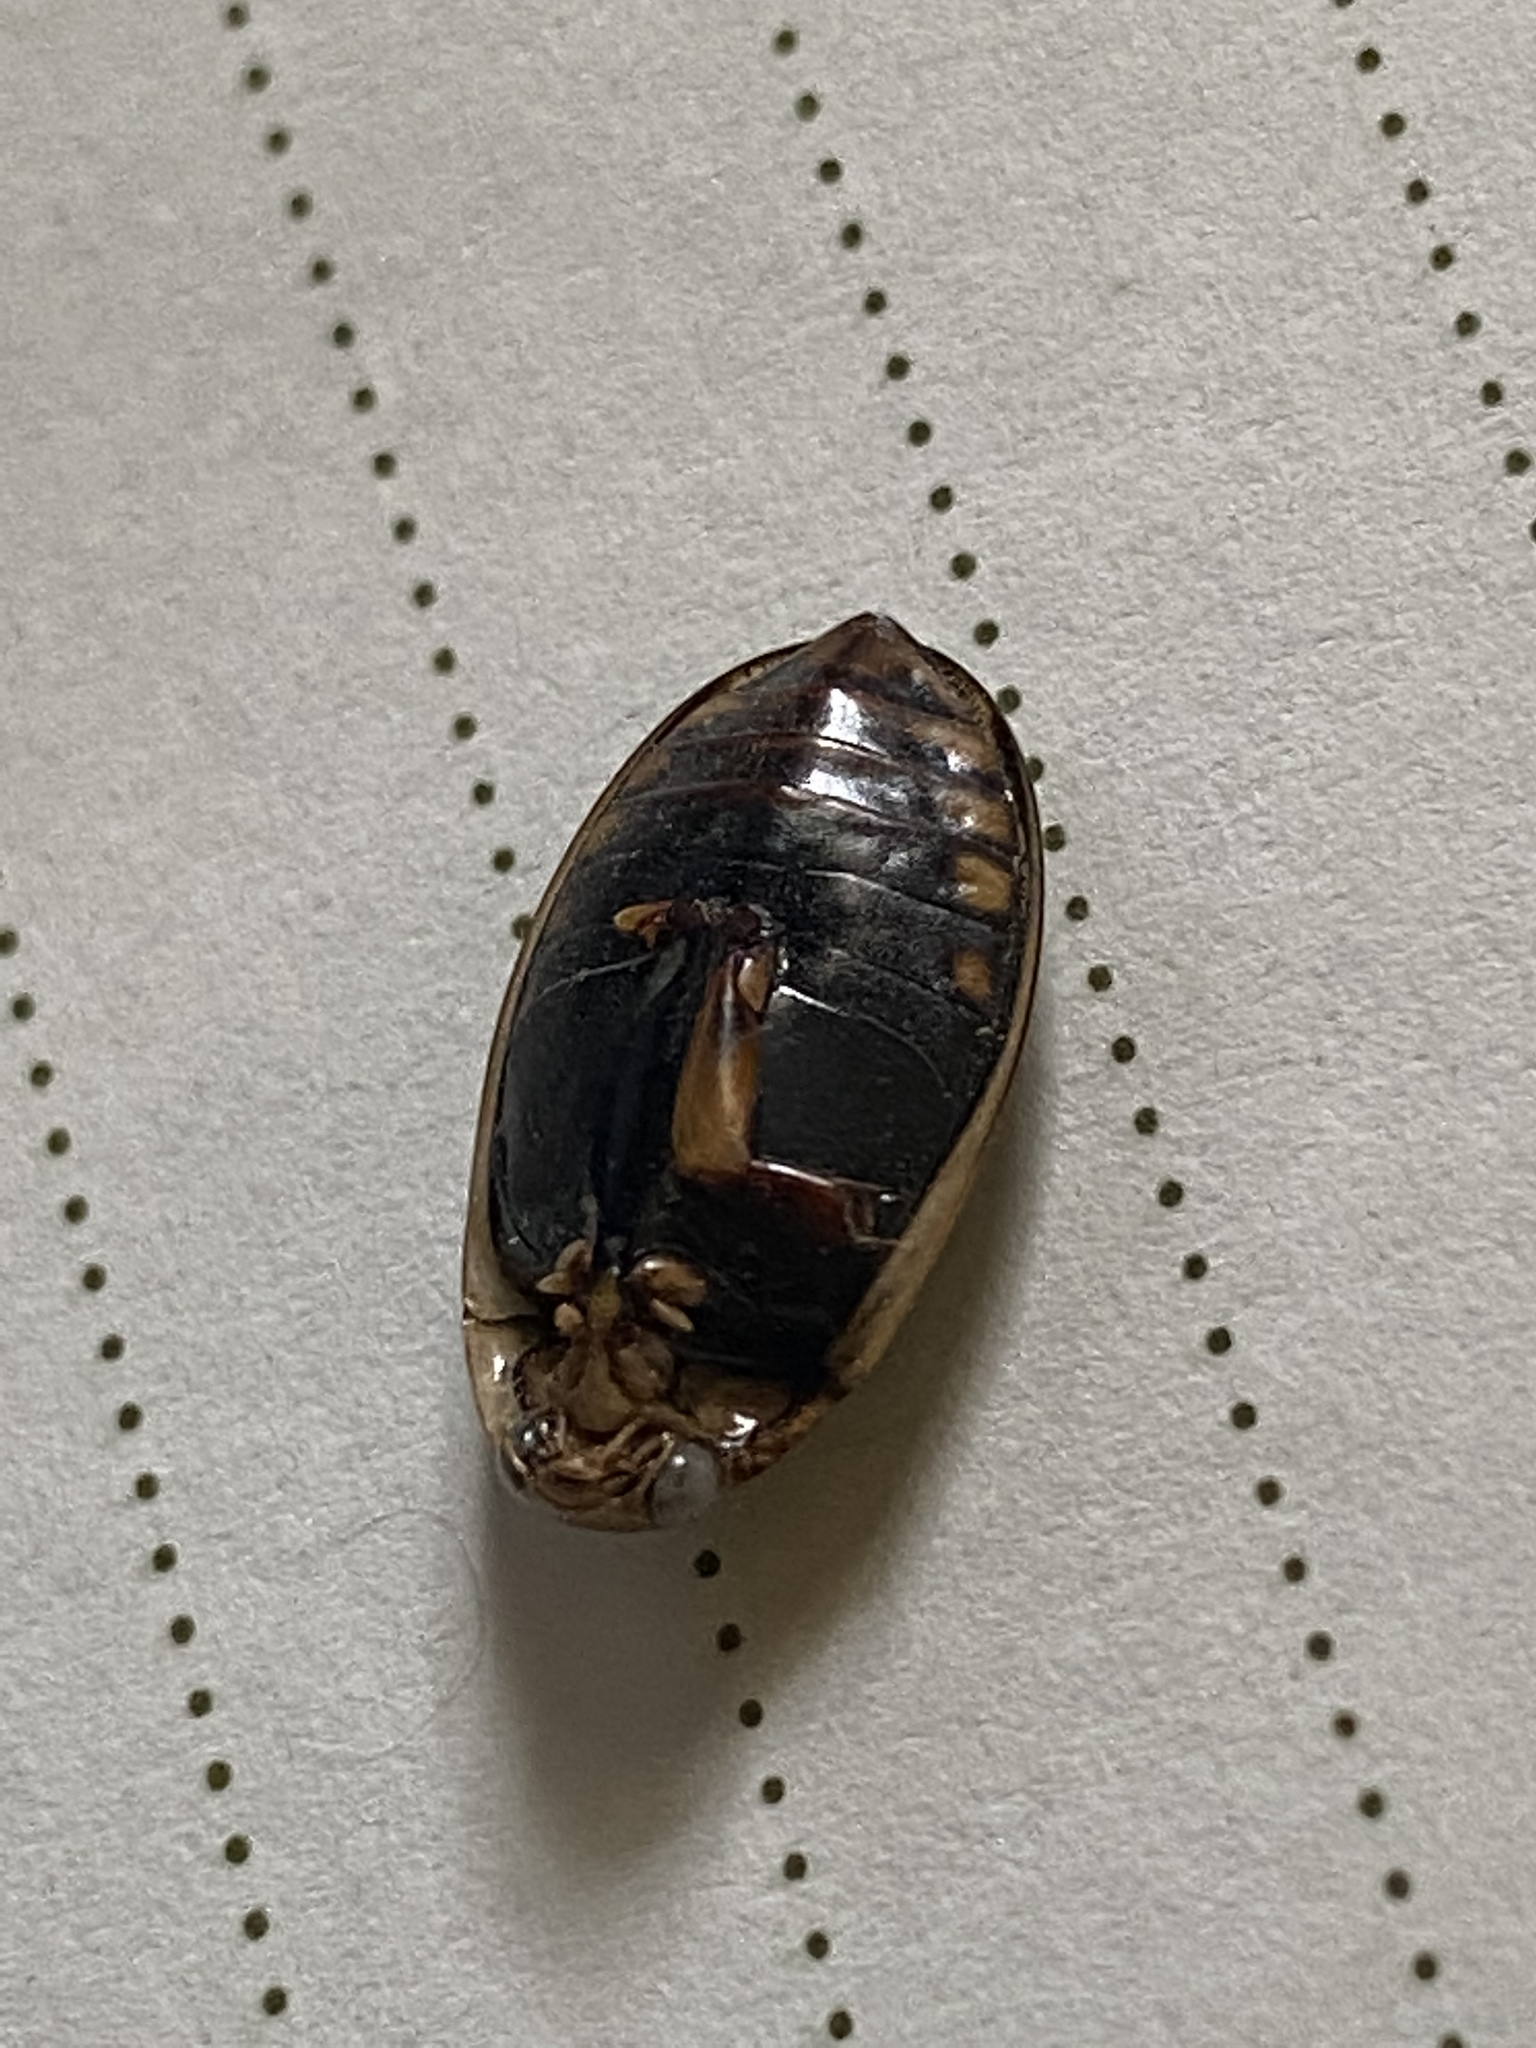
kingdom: Animalia
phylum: Arthropoda
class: Insecta
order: Coleoptera
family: Dytiscidae
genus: Acilius
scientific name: Acilius semisulcatus
